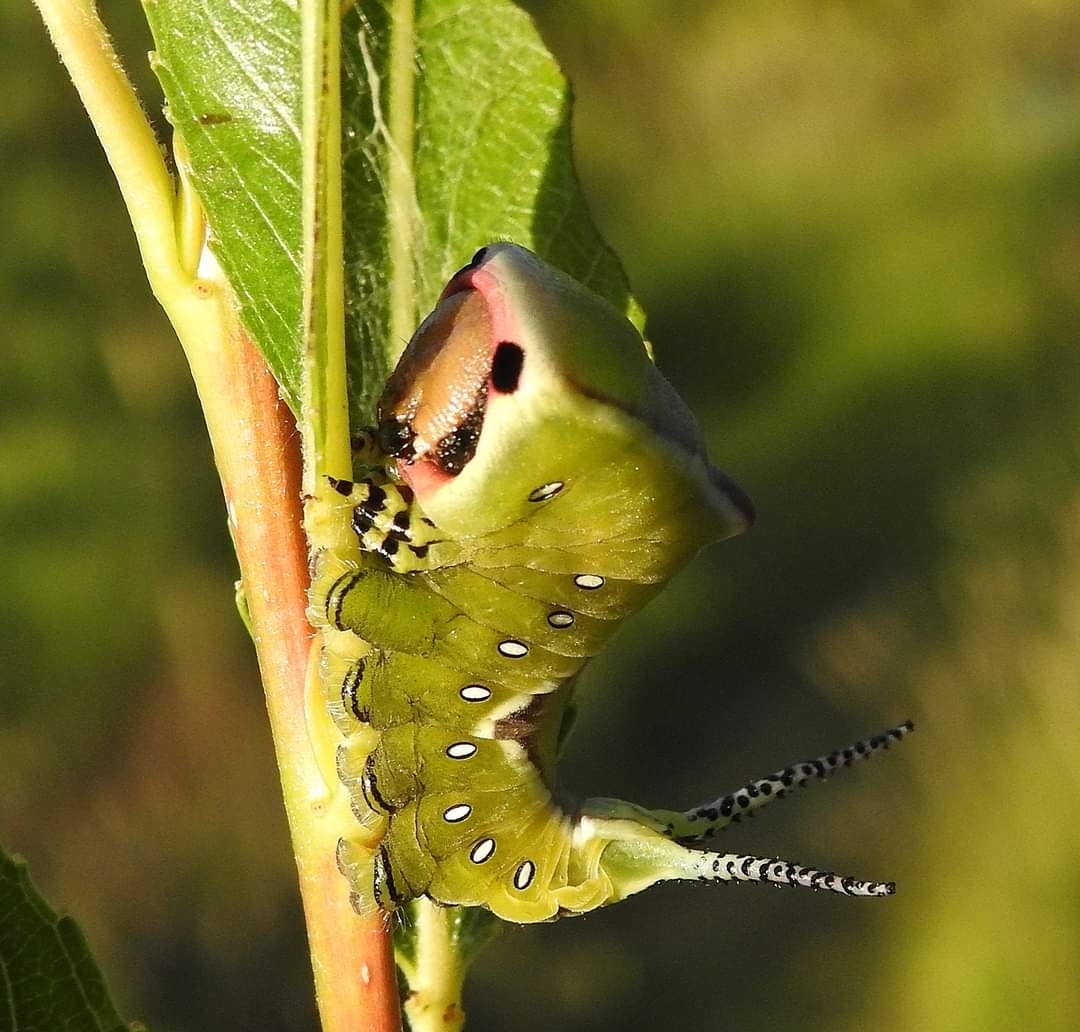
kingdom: Animalia
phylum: Arthropoda
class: Insecta
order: Lepidoptera
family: Notodontidae
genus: Cerura
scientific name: Cerura vinula
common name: Puss moth
